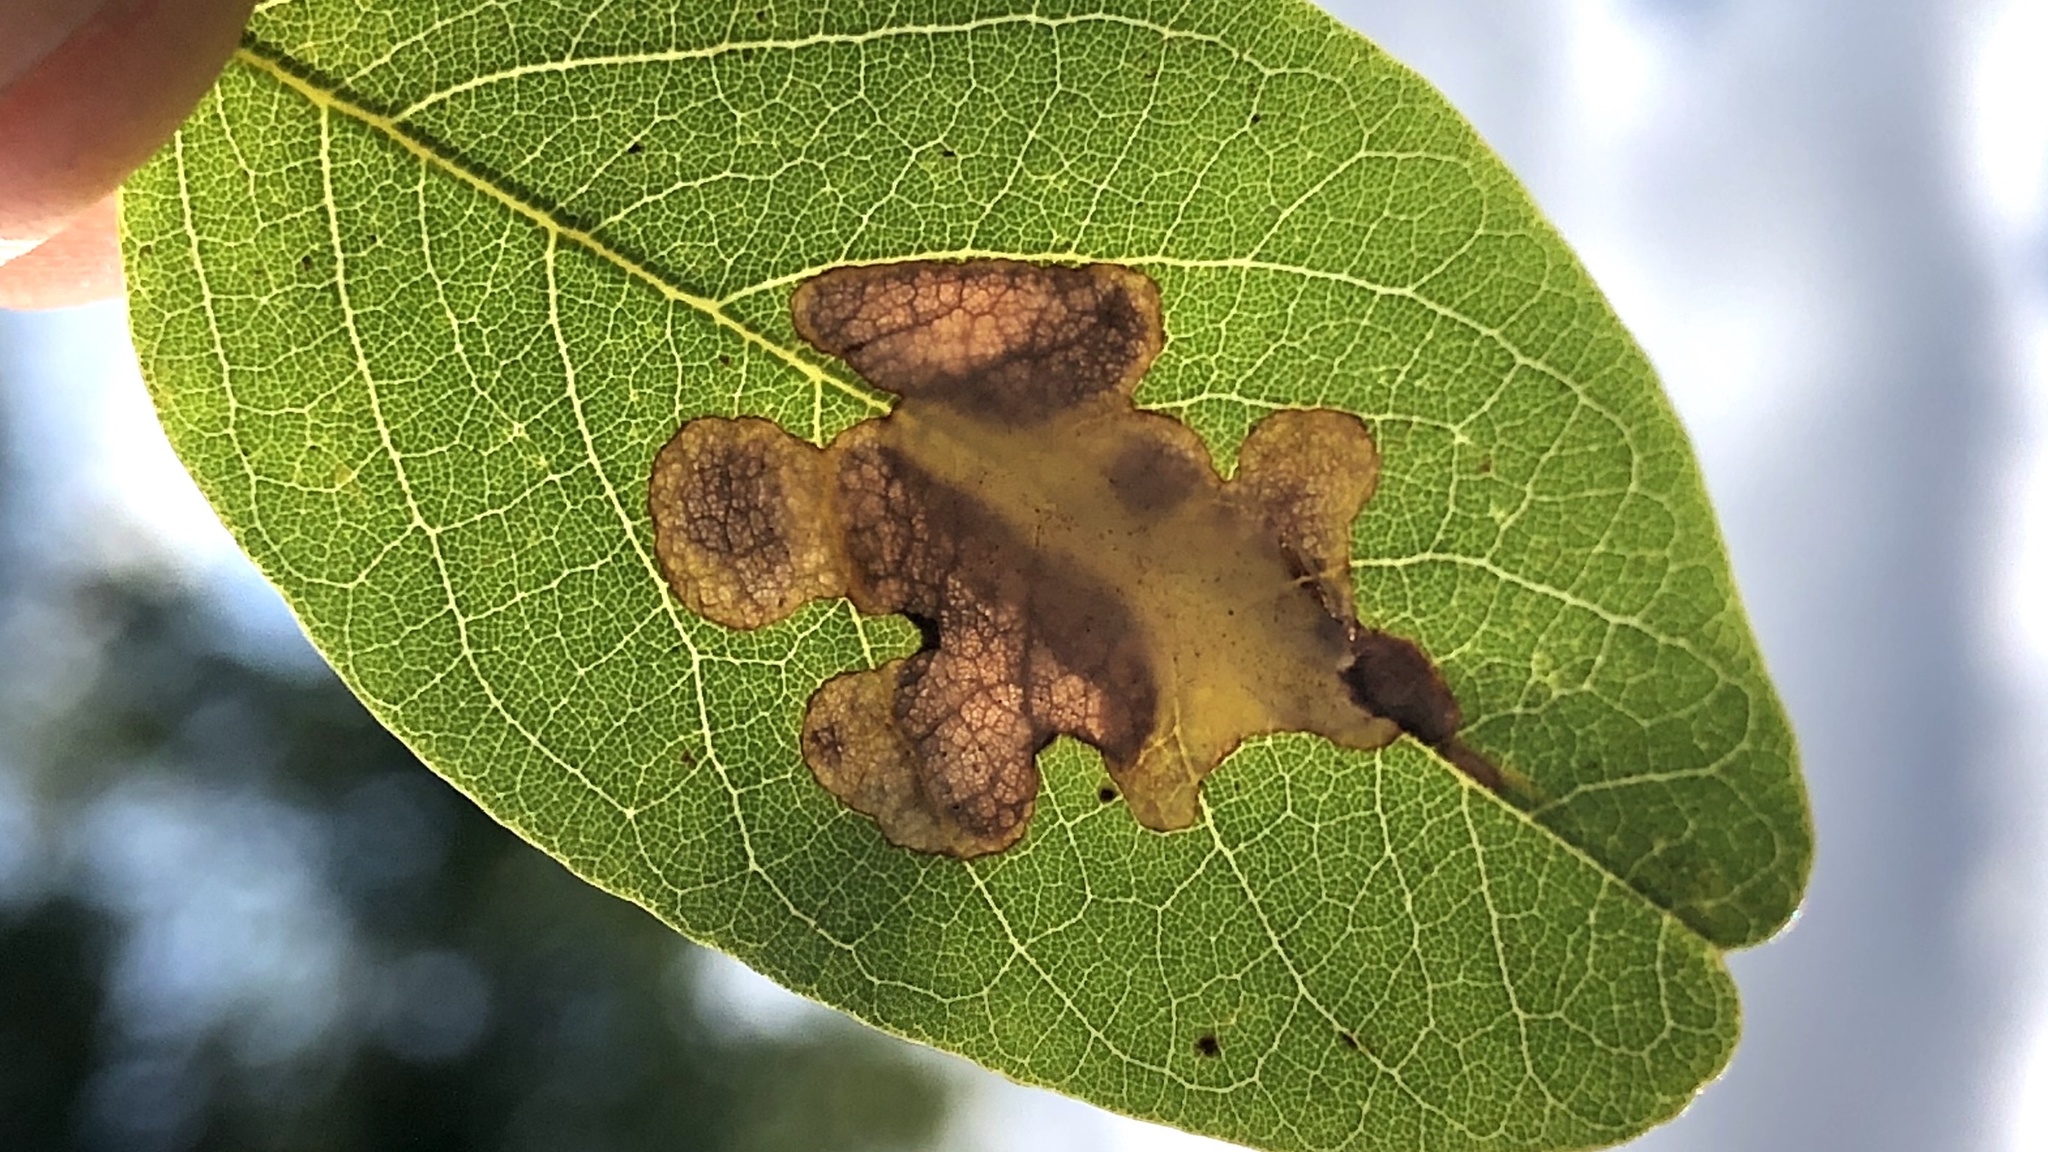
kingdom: Animalia
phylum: Arthropoda
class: Insecta
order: Lepidoptera
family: Gracillariidae
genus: Parectopa
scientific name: Parectopa robiniella
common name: Locust digitate leafminer
